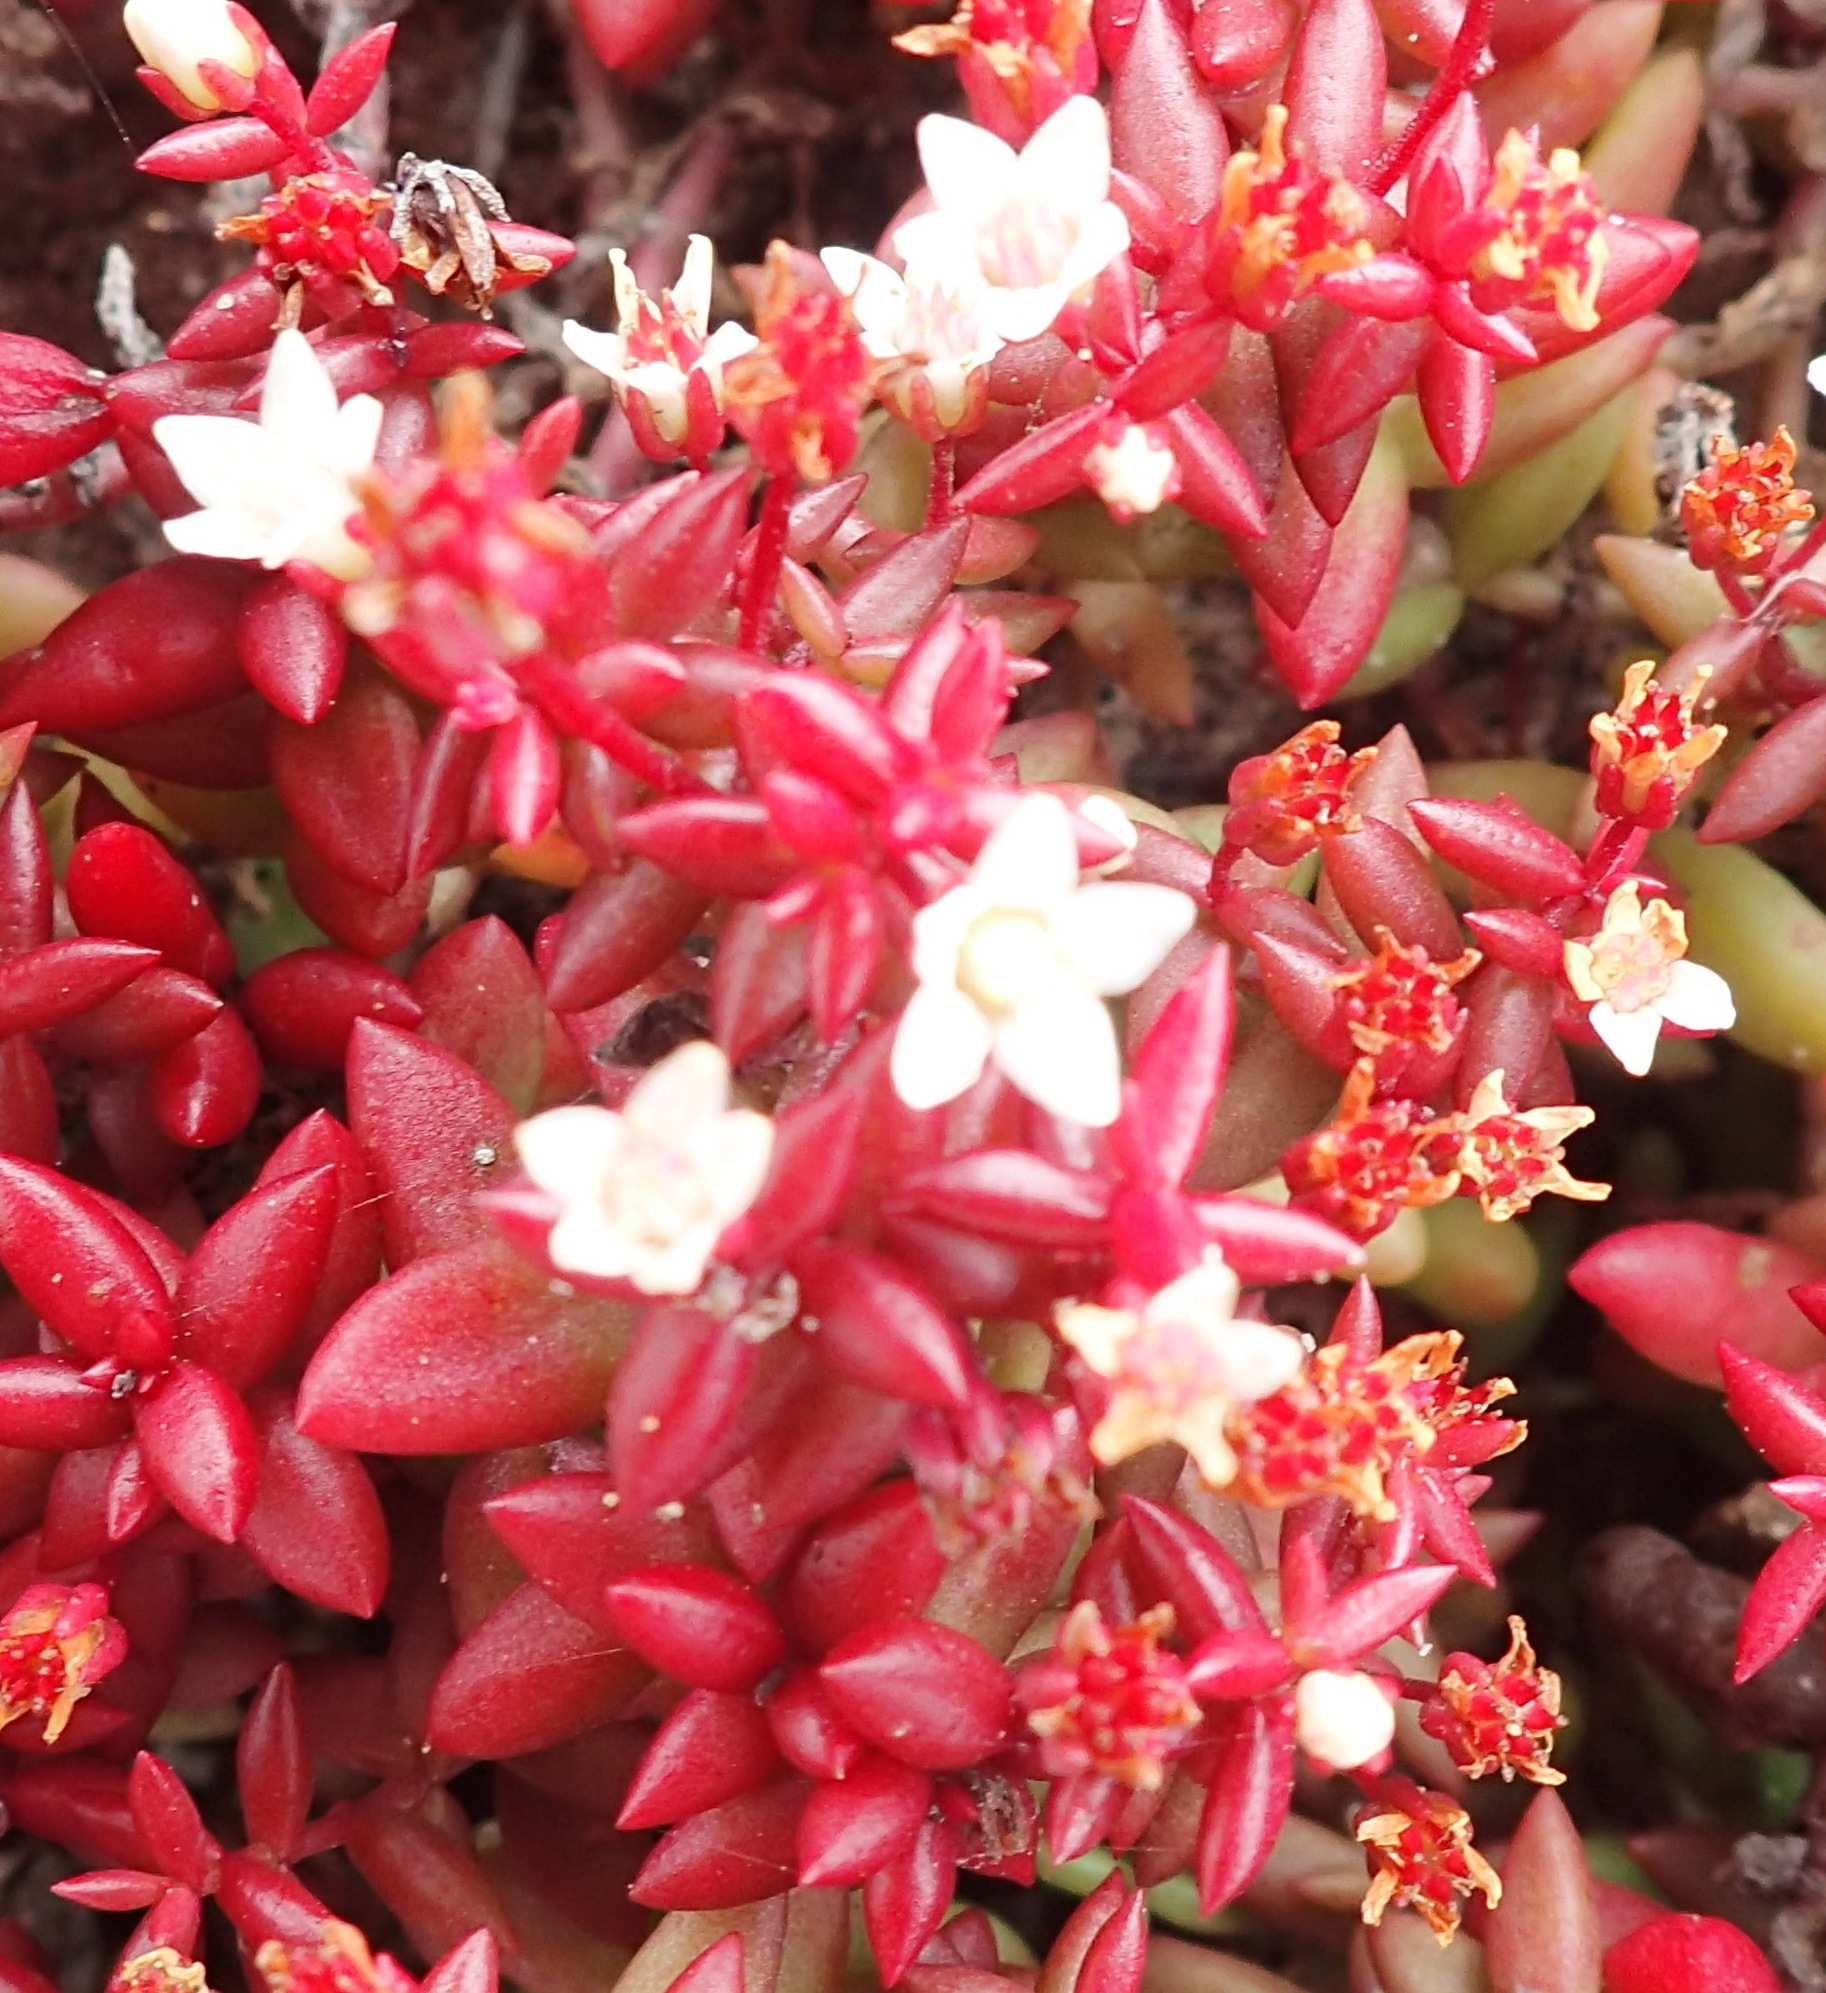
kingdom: Plantae
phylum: Tracheophyta
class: Magnoliopsida
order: Saxifragales
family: Crassulaceae
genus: Crassula
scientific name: Crassula expansa
